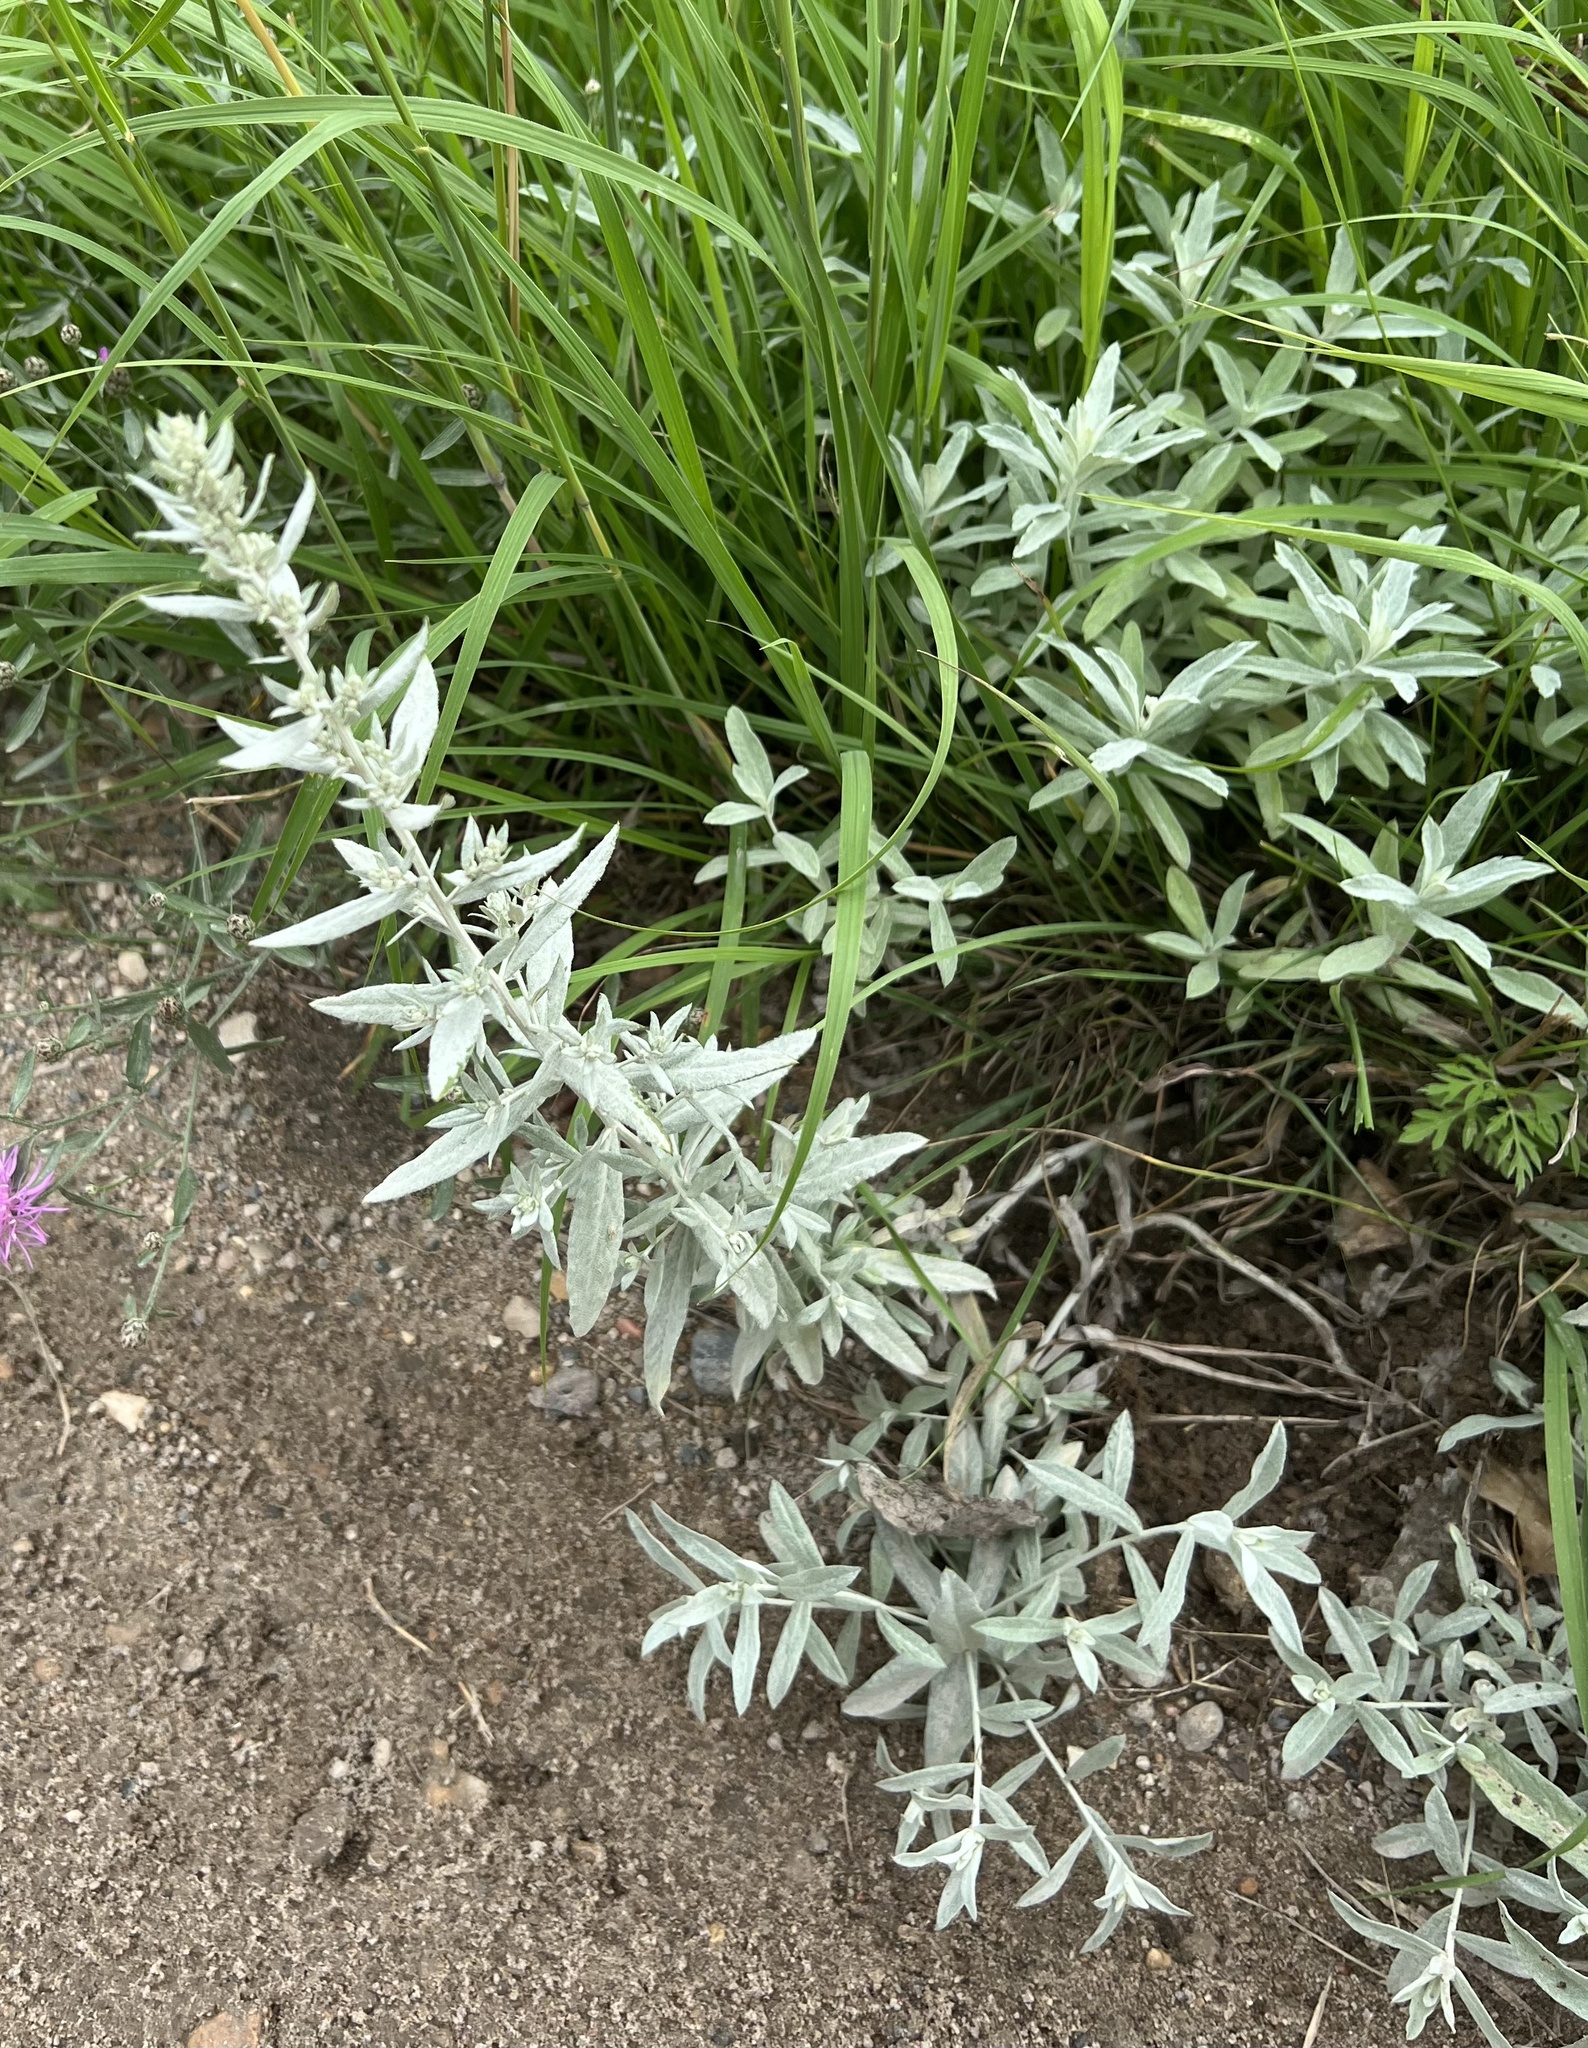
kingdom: Plantae
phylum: Tracheophyta
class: Magnoliopsida
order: Asterales
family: Asteraceae
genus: Artemisia
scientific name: Artemisia ludoviciana
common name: Western mugwort
